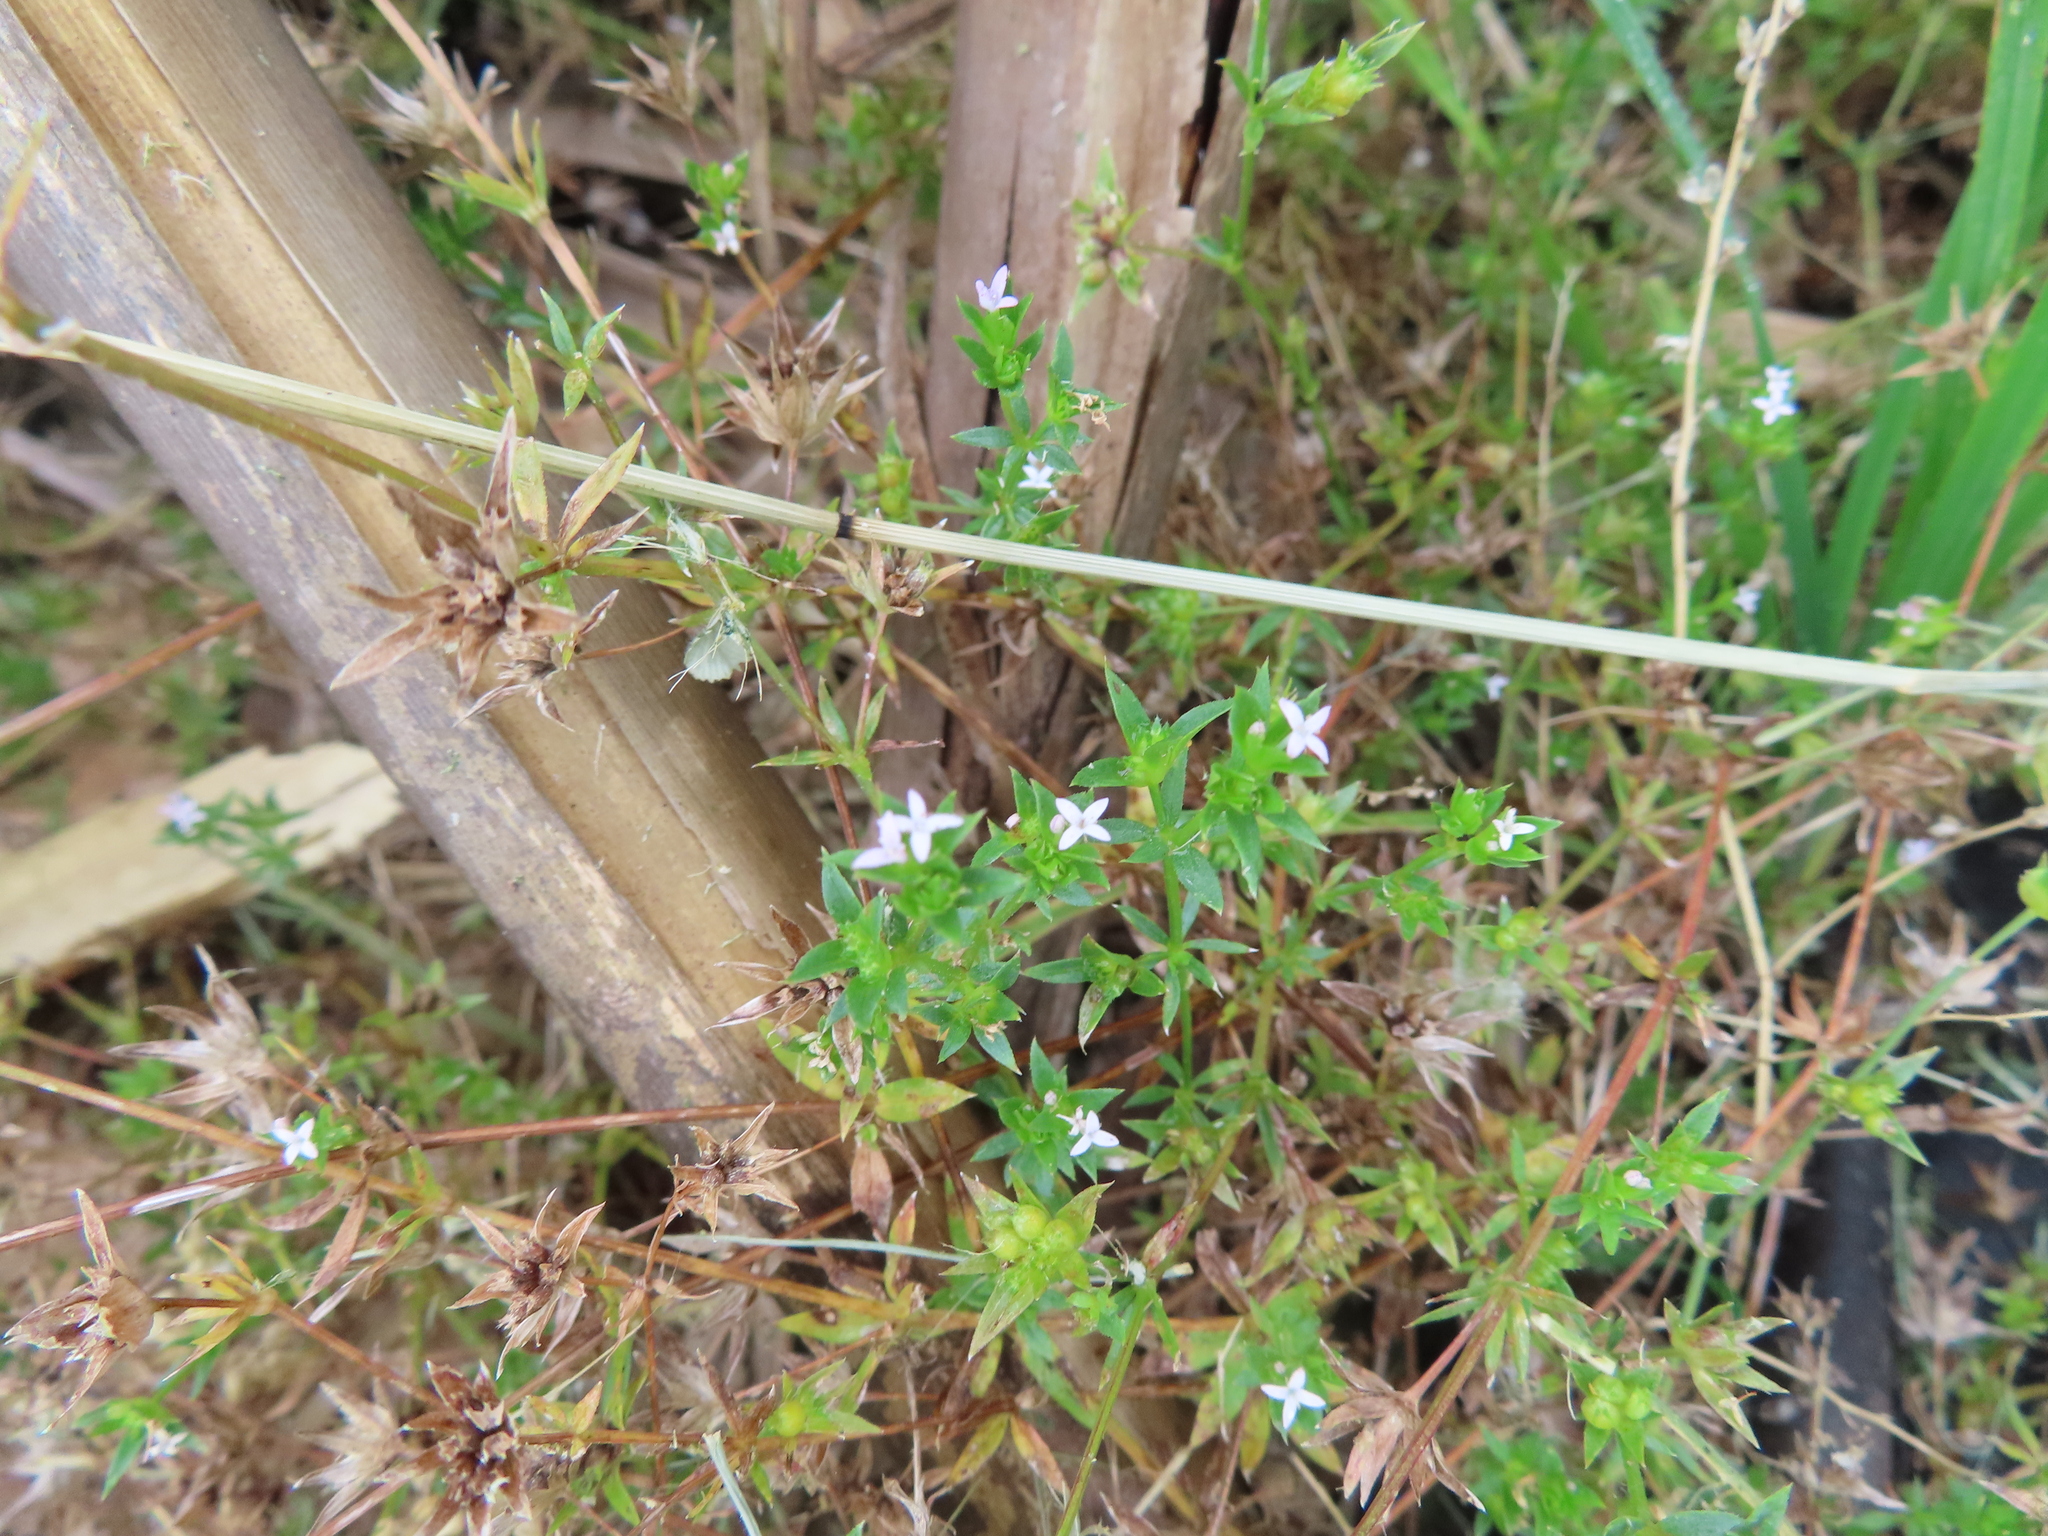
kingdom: Plantae
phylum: Tracheophyta
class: Magnoliopsida
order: Gentianales
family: Rubiaceae
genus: Sherardia
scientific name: Sherardia arvensis
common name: Field madder
